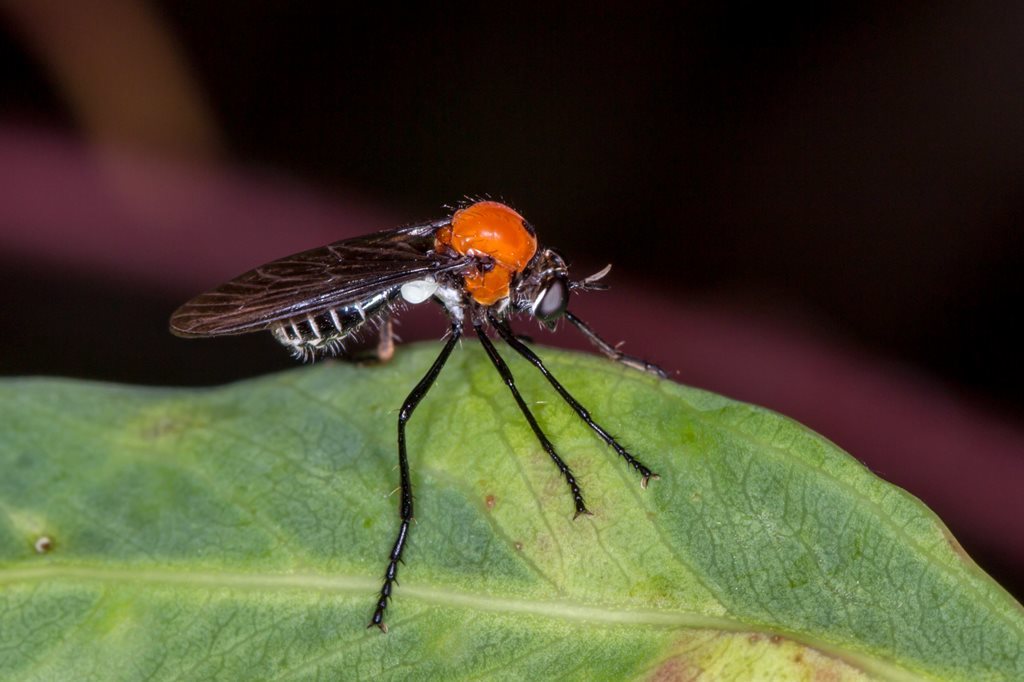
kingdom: Animalia
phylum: Arthropoda
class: Insecta
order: Diptera
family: Asilidae
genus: Cabasa
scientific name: Cabasa pulchella
